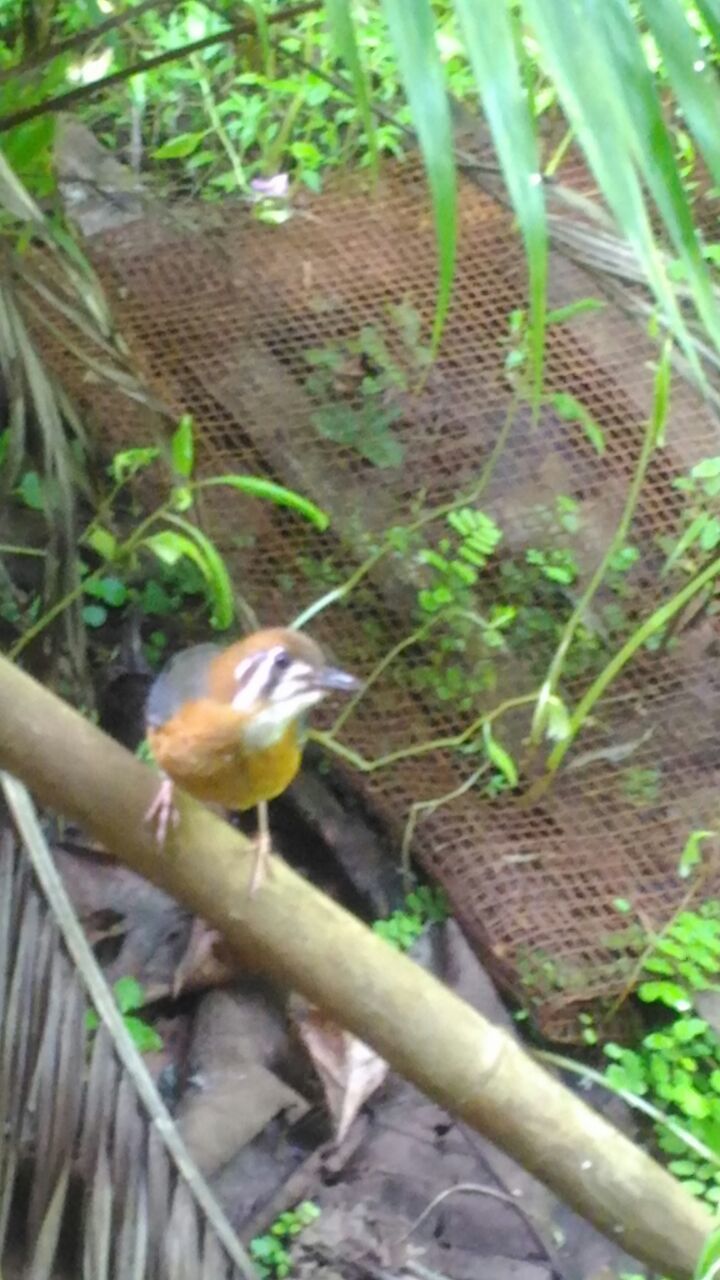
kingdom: Animalia
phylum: Chordata
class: Aves
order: Passeriformes
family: Turdidae
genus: Geokichla
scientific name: Geokichla citrina
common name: Orange-headed thrush
